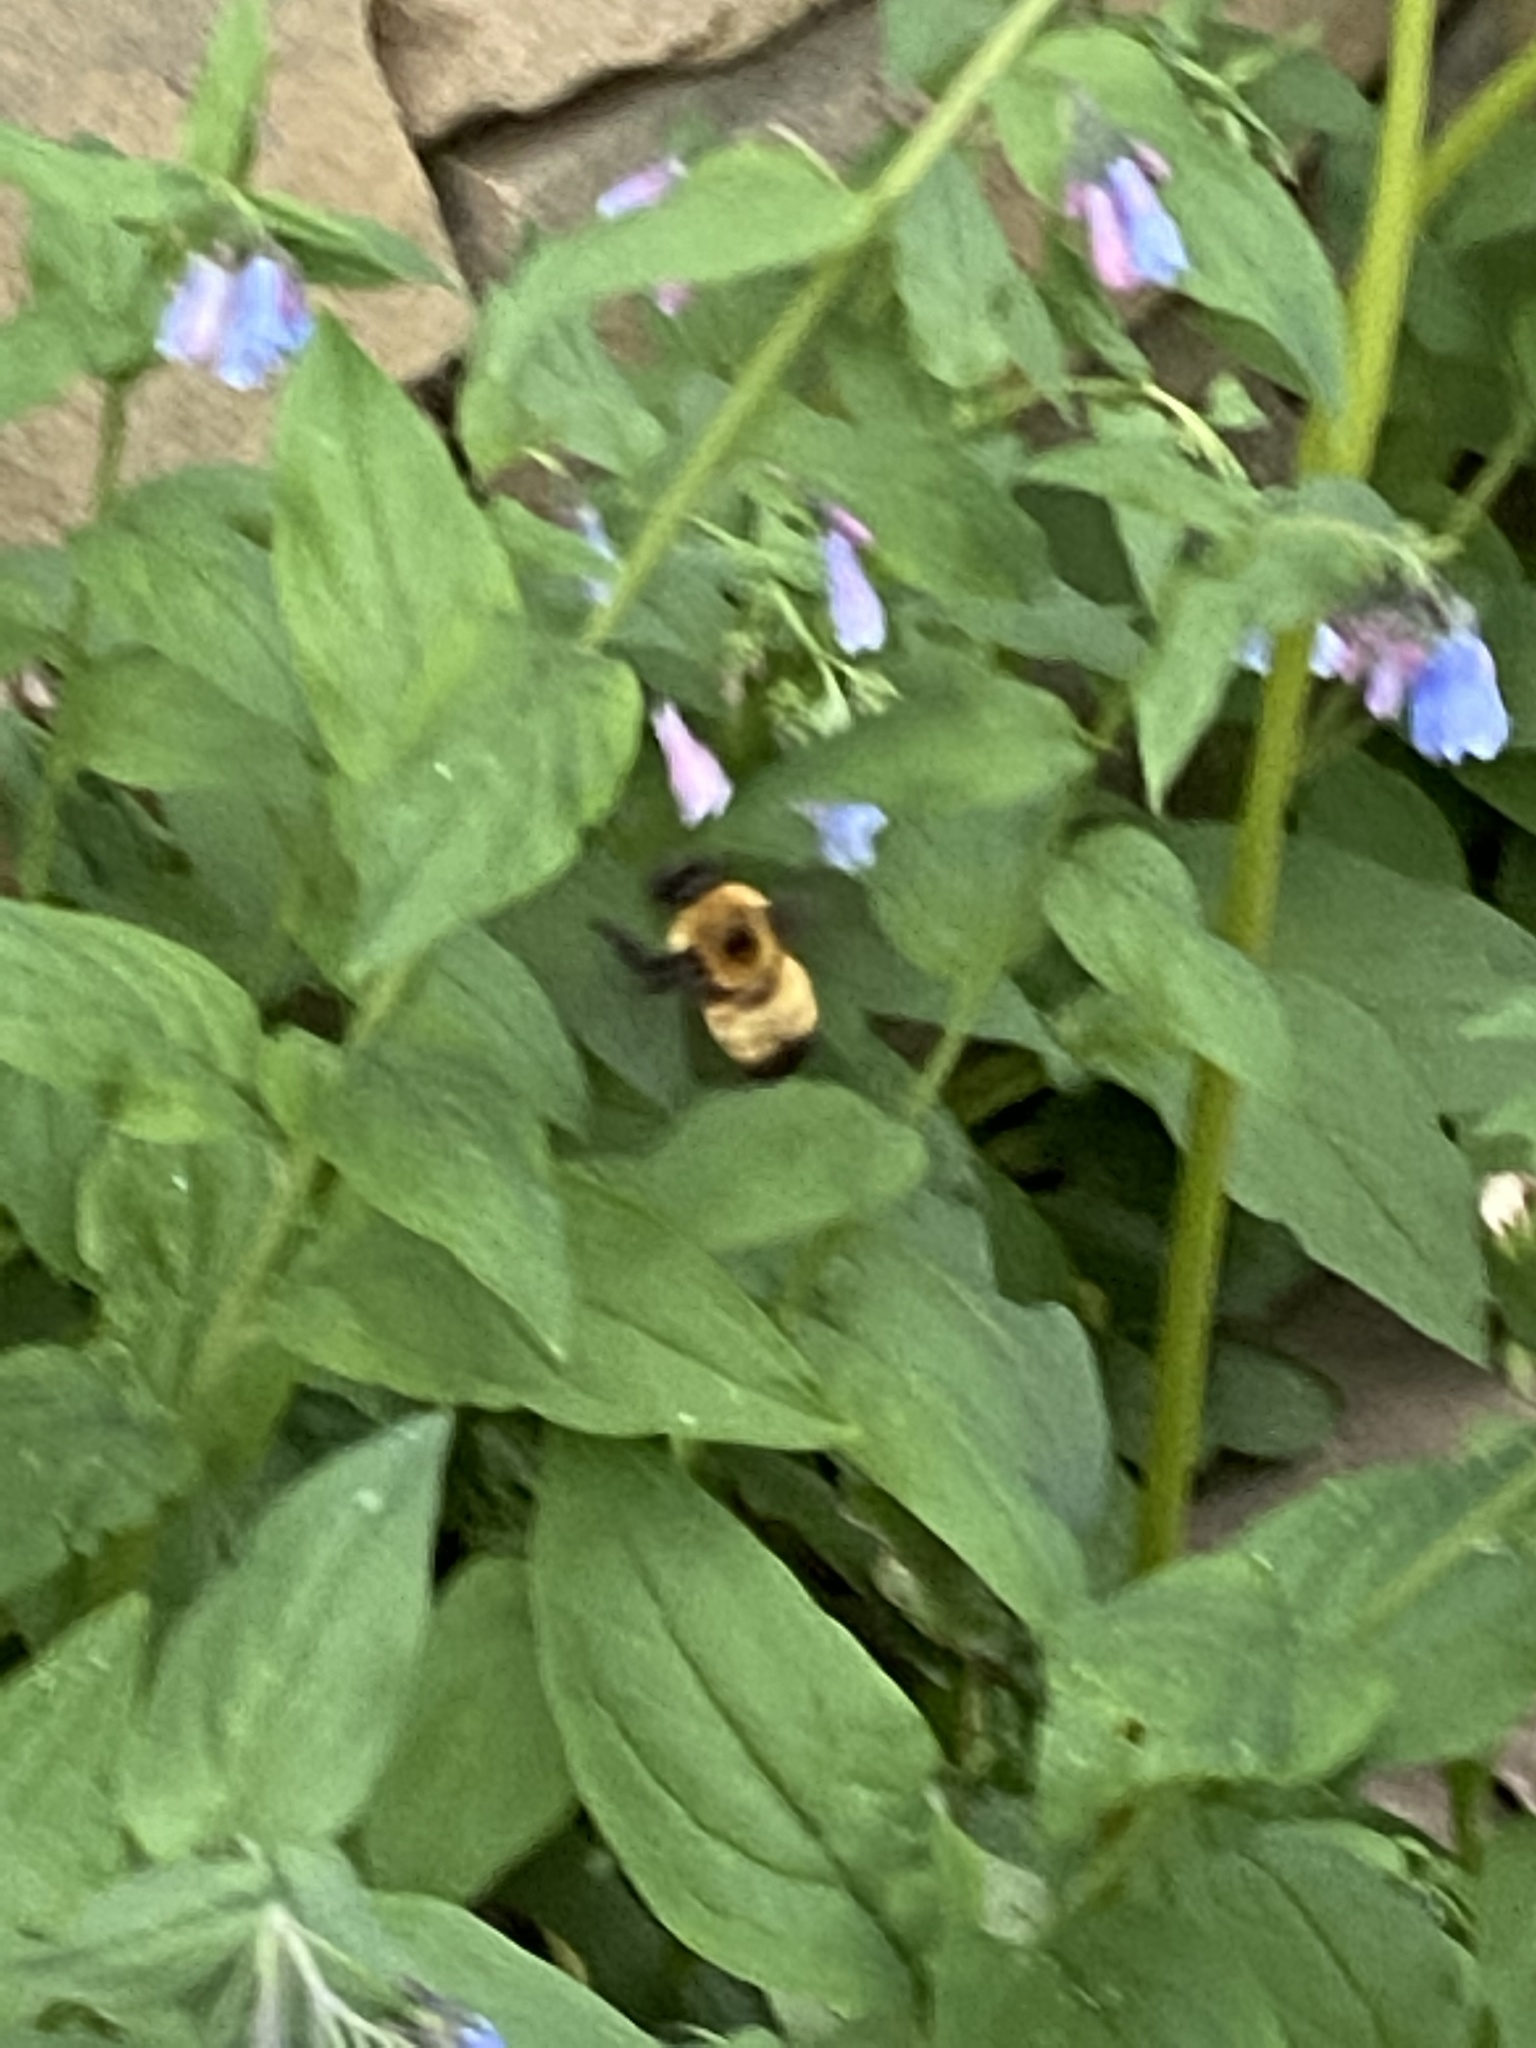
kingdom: Animalia
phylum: Arthropoda
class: Insecta
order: Hymenoptera
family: Apidae
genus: Bombus
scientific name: Bombus nevadensis
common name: Nevada bumble bee
